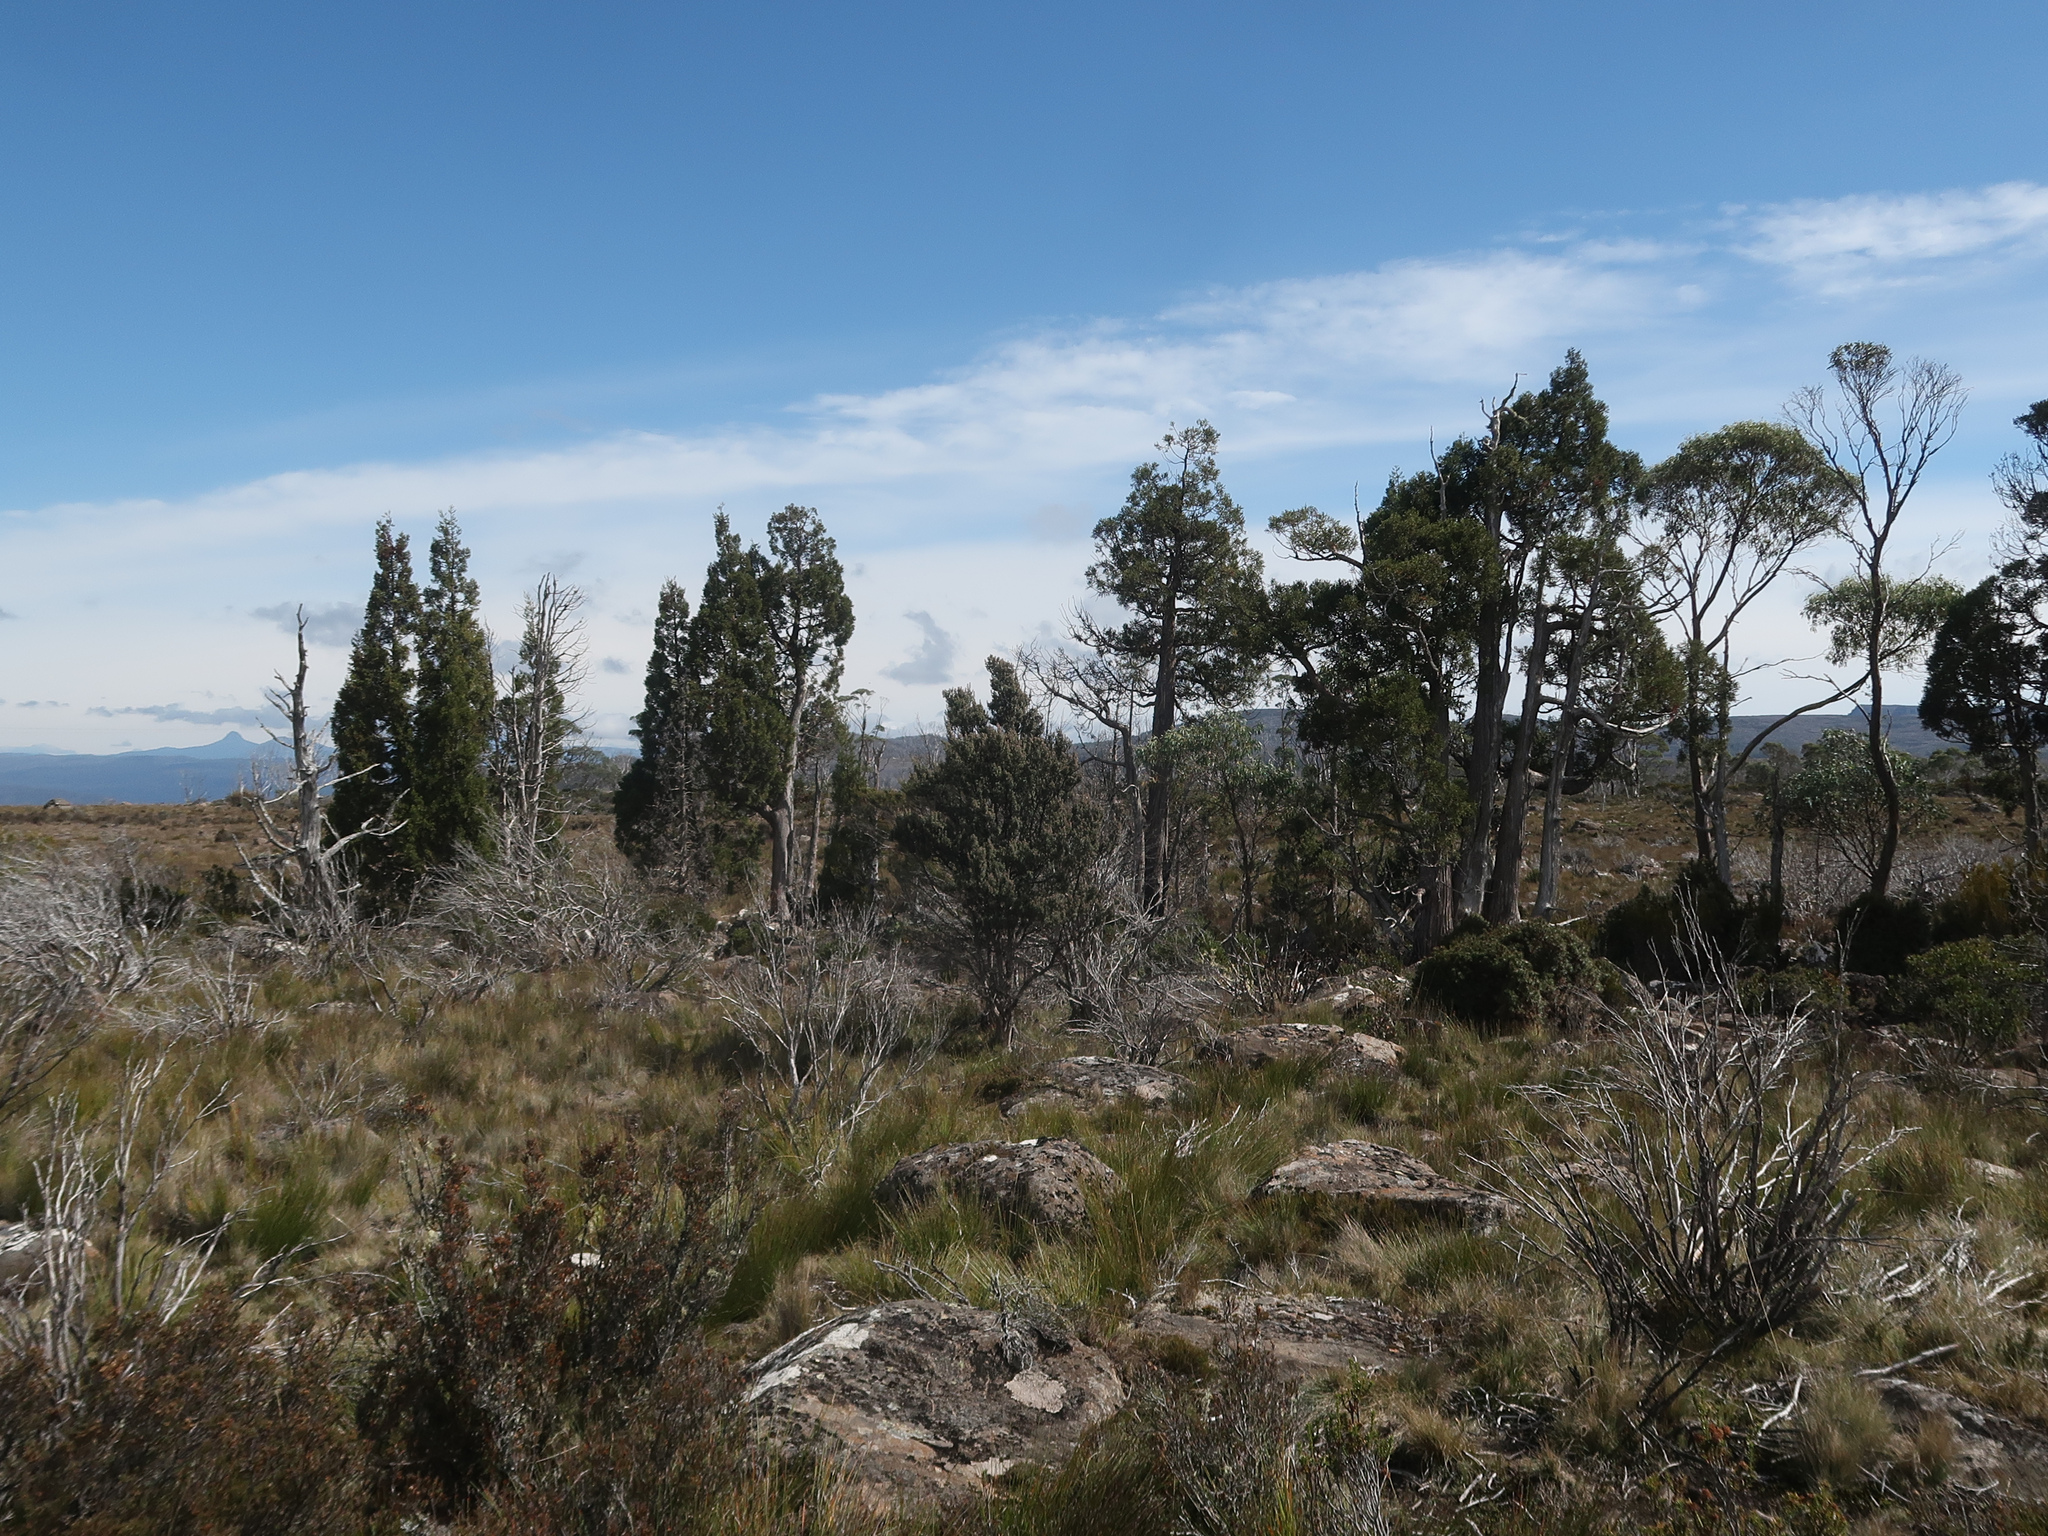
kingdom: Plantae
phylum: Tracheophyta
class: Pinopsida
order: Pinales
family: Cupressaceae
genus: Athrotaxis
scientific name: Athrotaxis cupressoides
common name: Tasmanian pencil pine
